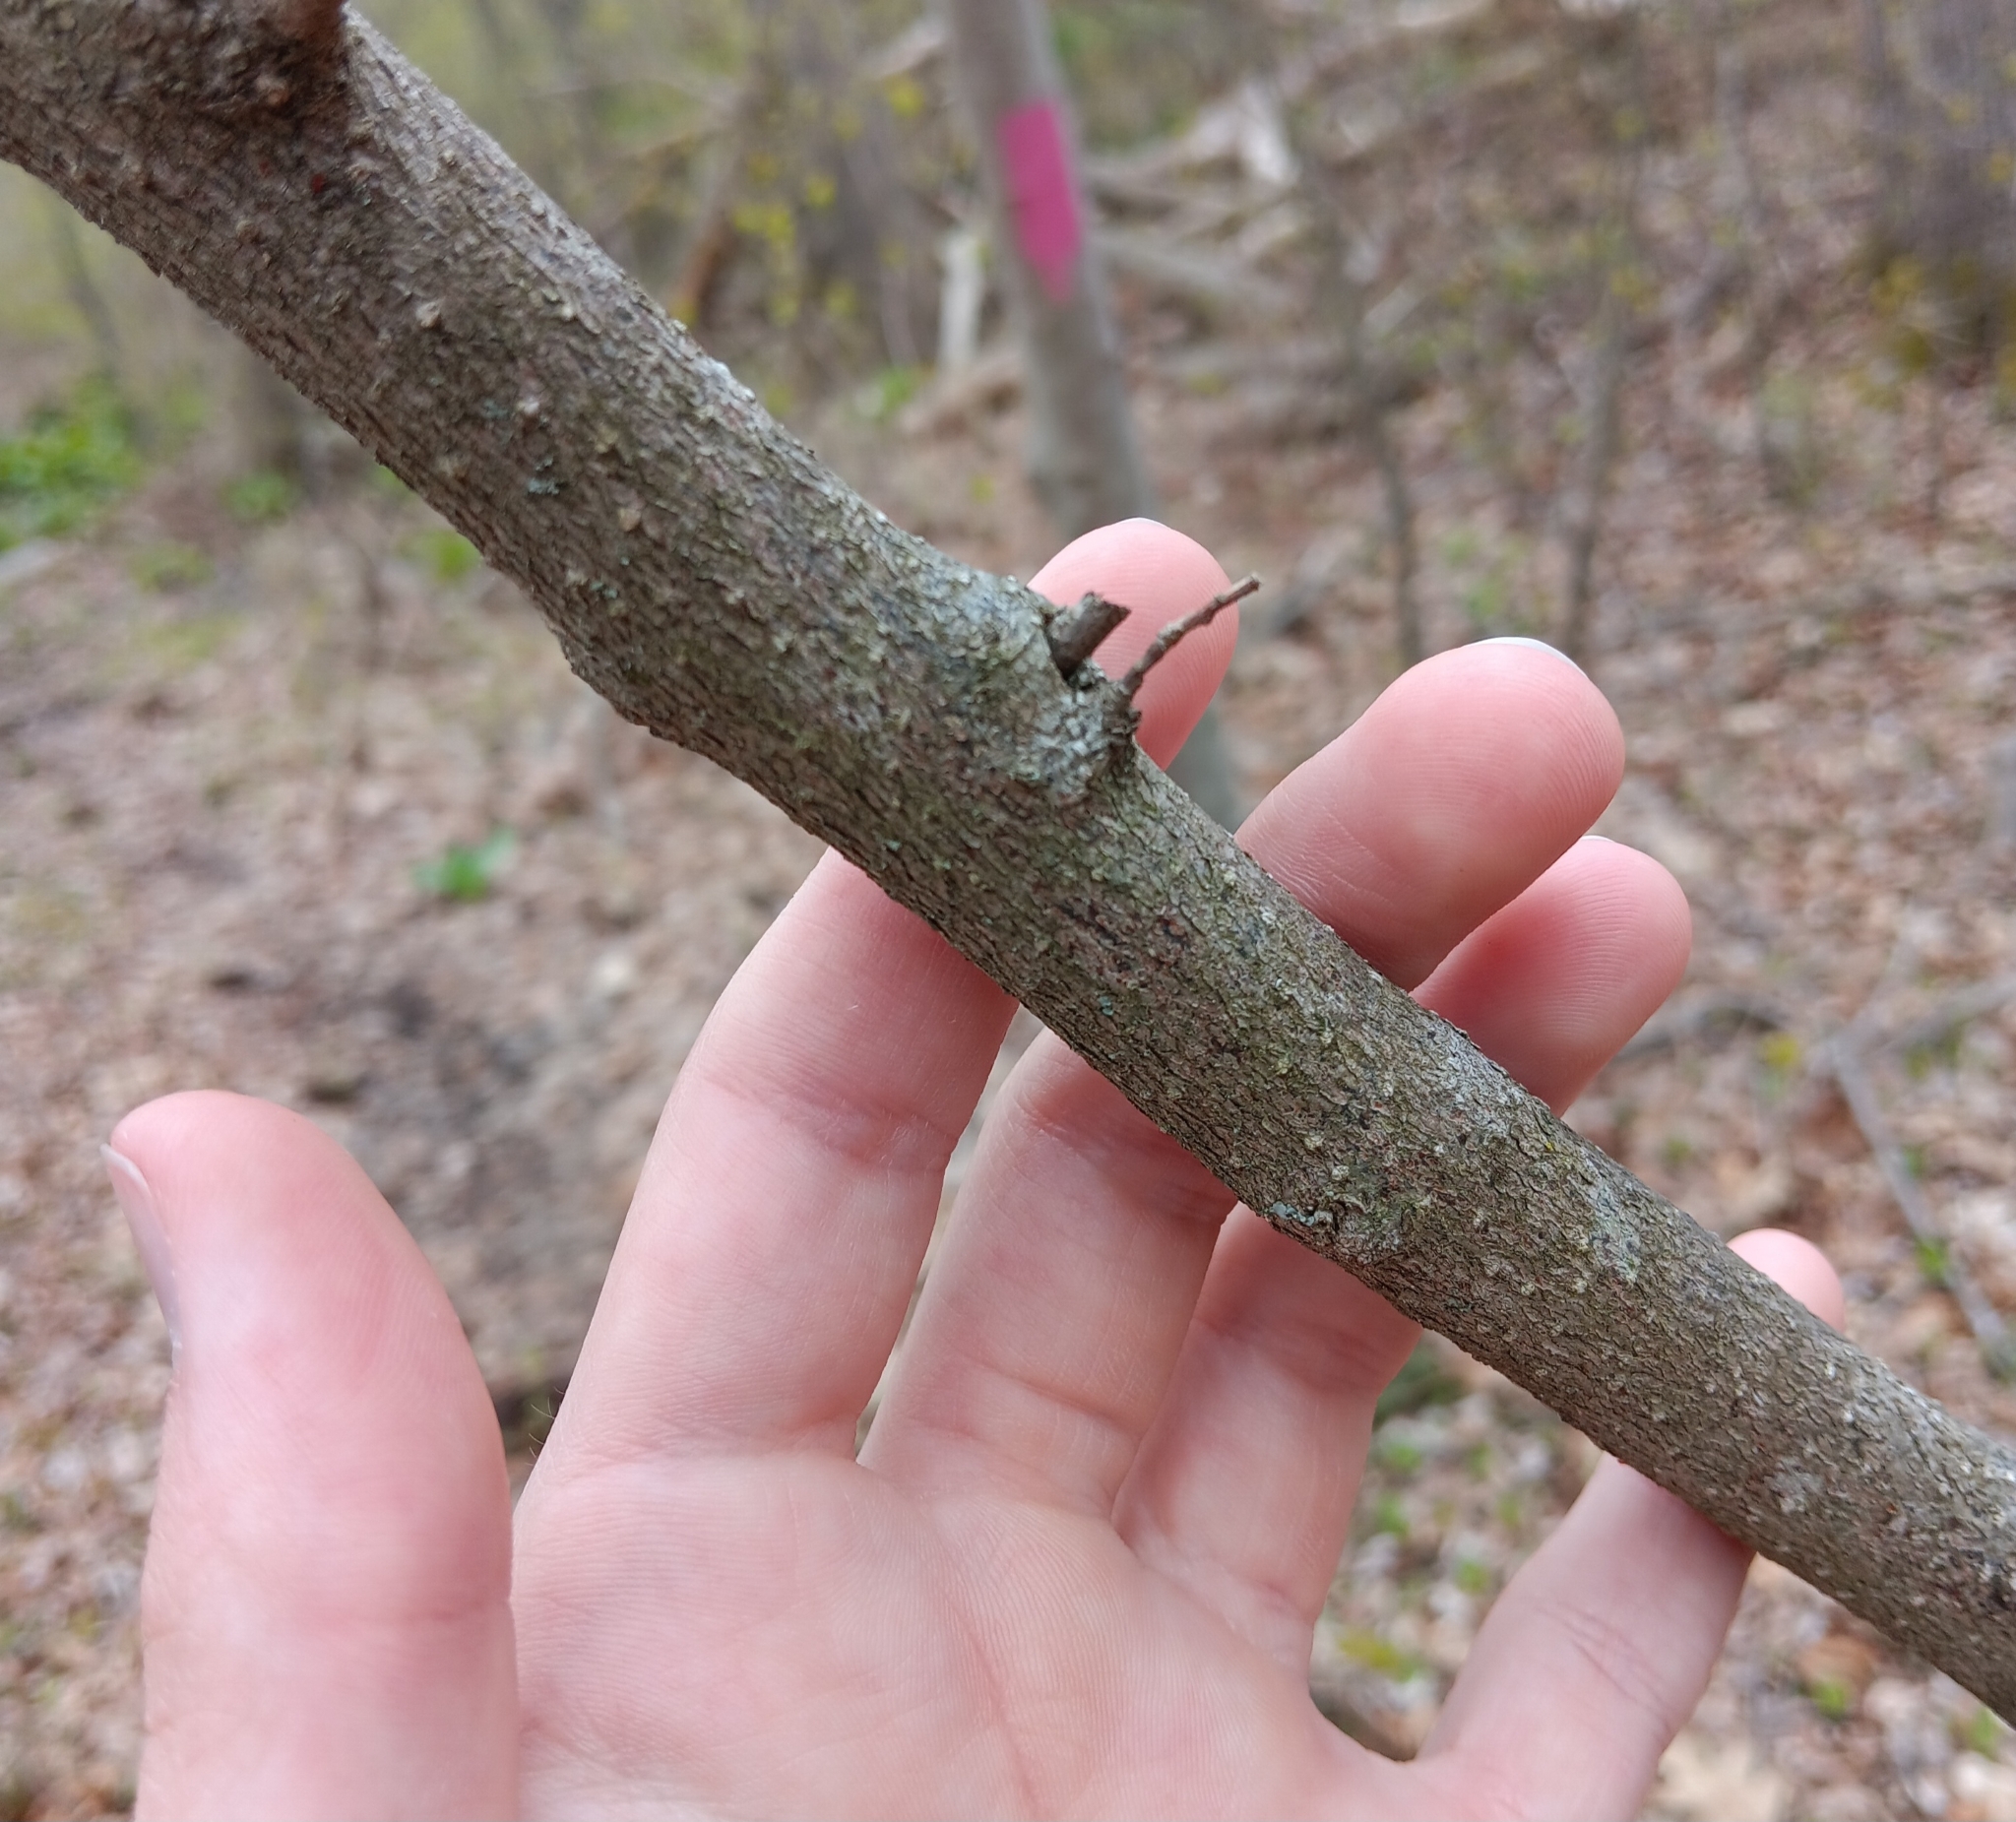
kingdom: Plantae
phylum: Tracheophyta
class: Magnoliopsida
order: Laurales
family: Lauraceae
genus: Lindera
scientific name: Lindera benzoin
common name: Spicebush
